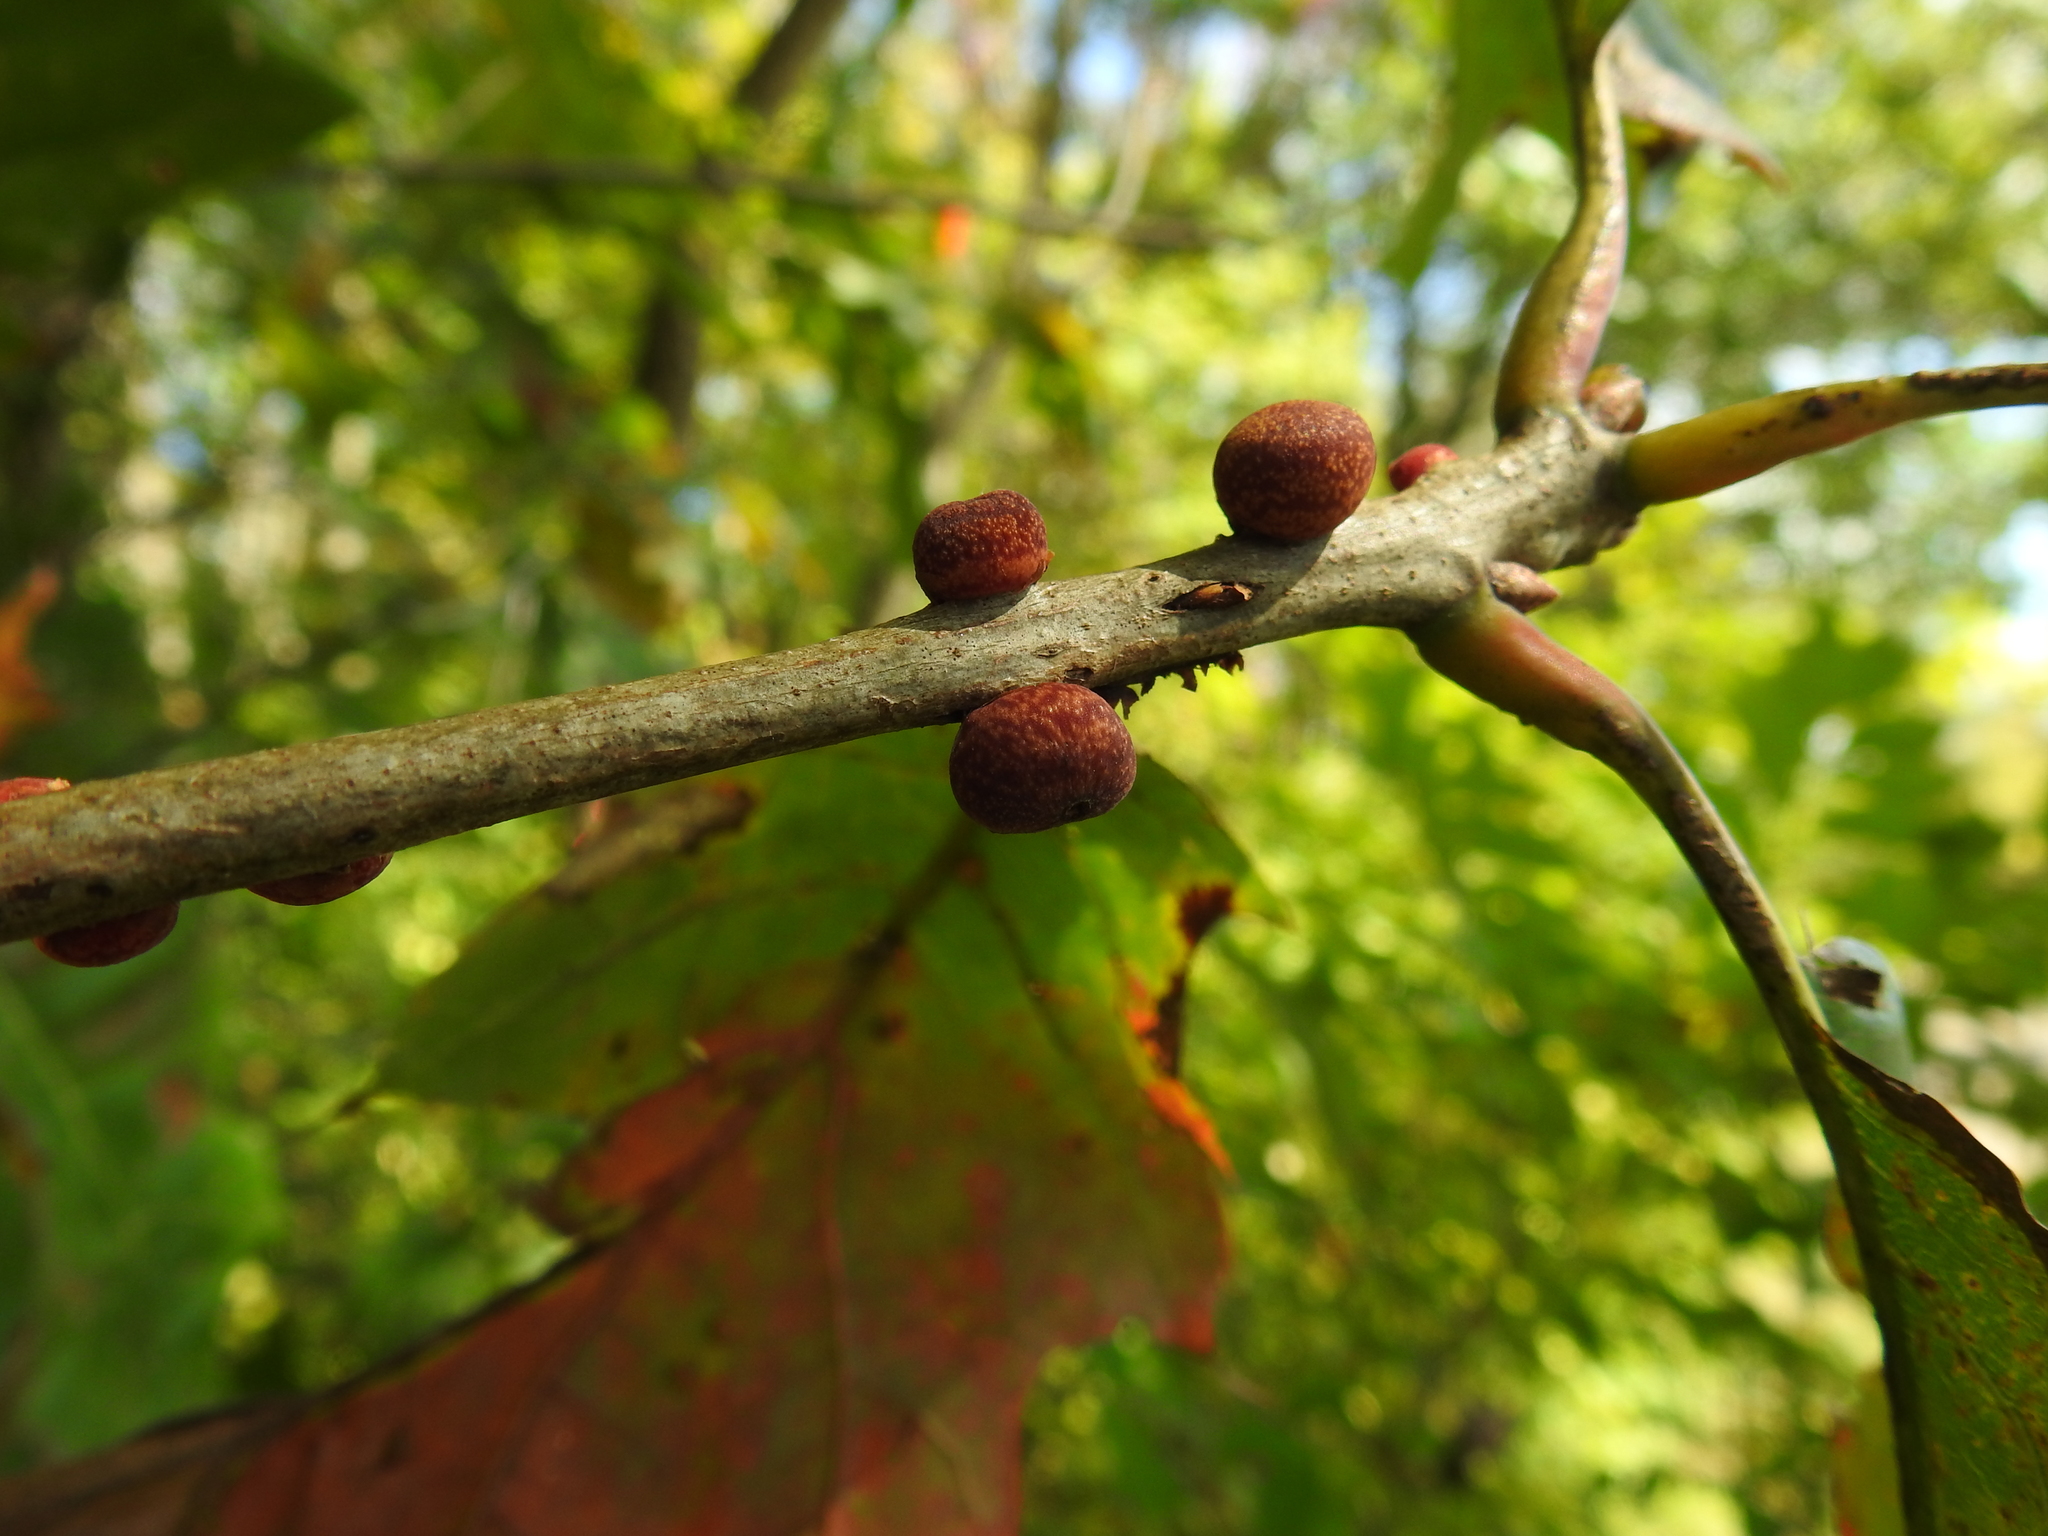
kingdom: Animalia
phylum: Arthropoda
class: Insecta
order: Hymenoptera
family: Cynipidae
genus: Kokkocynips
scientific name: Kokkocynips imbricariae
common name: Banded bullet gall wasp
